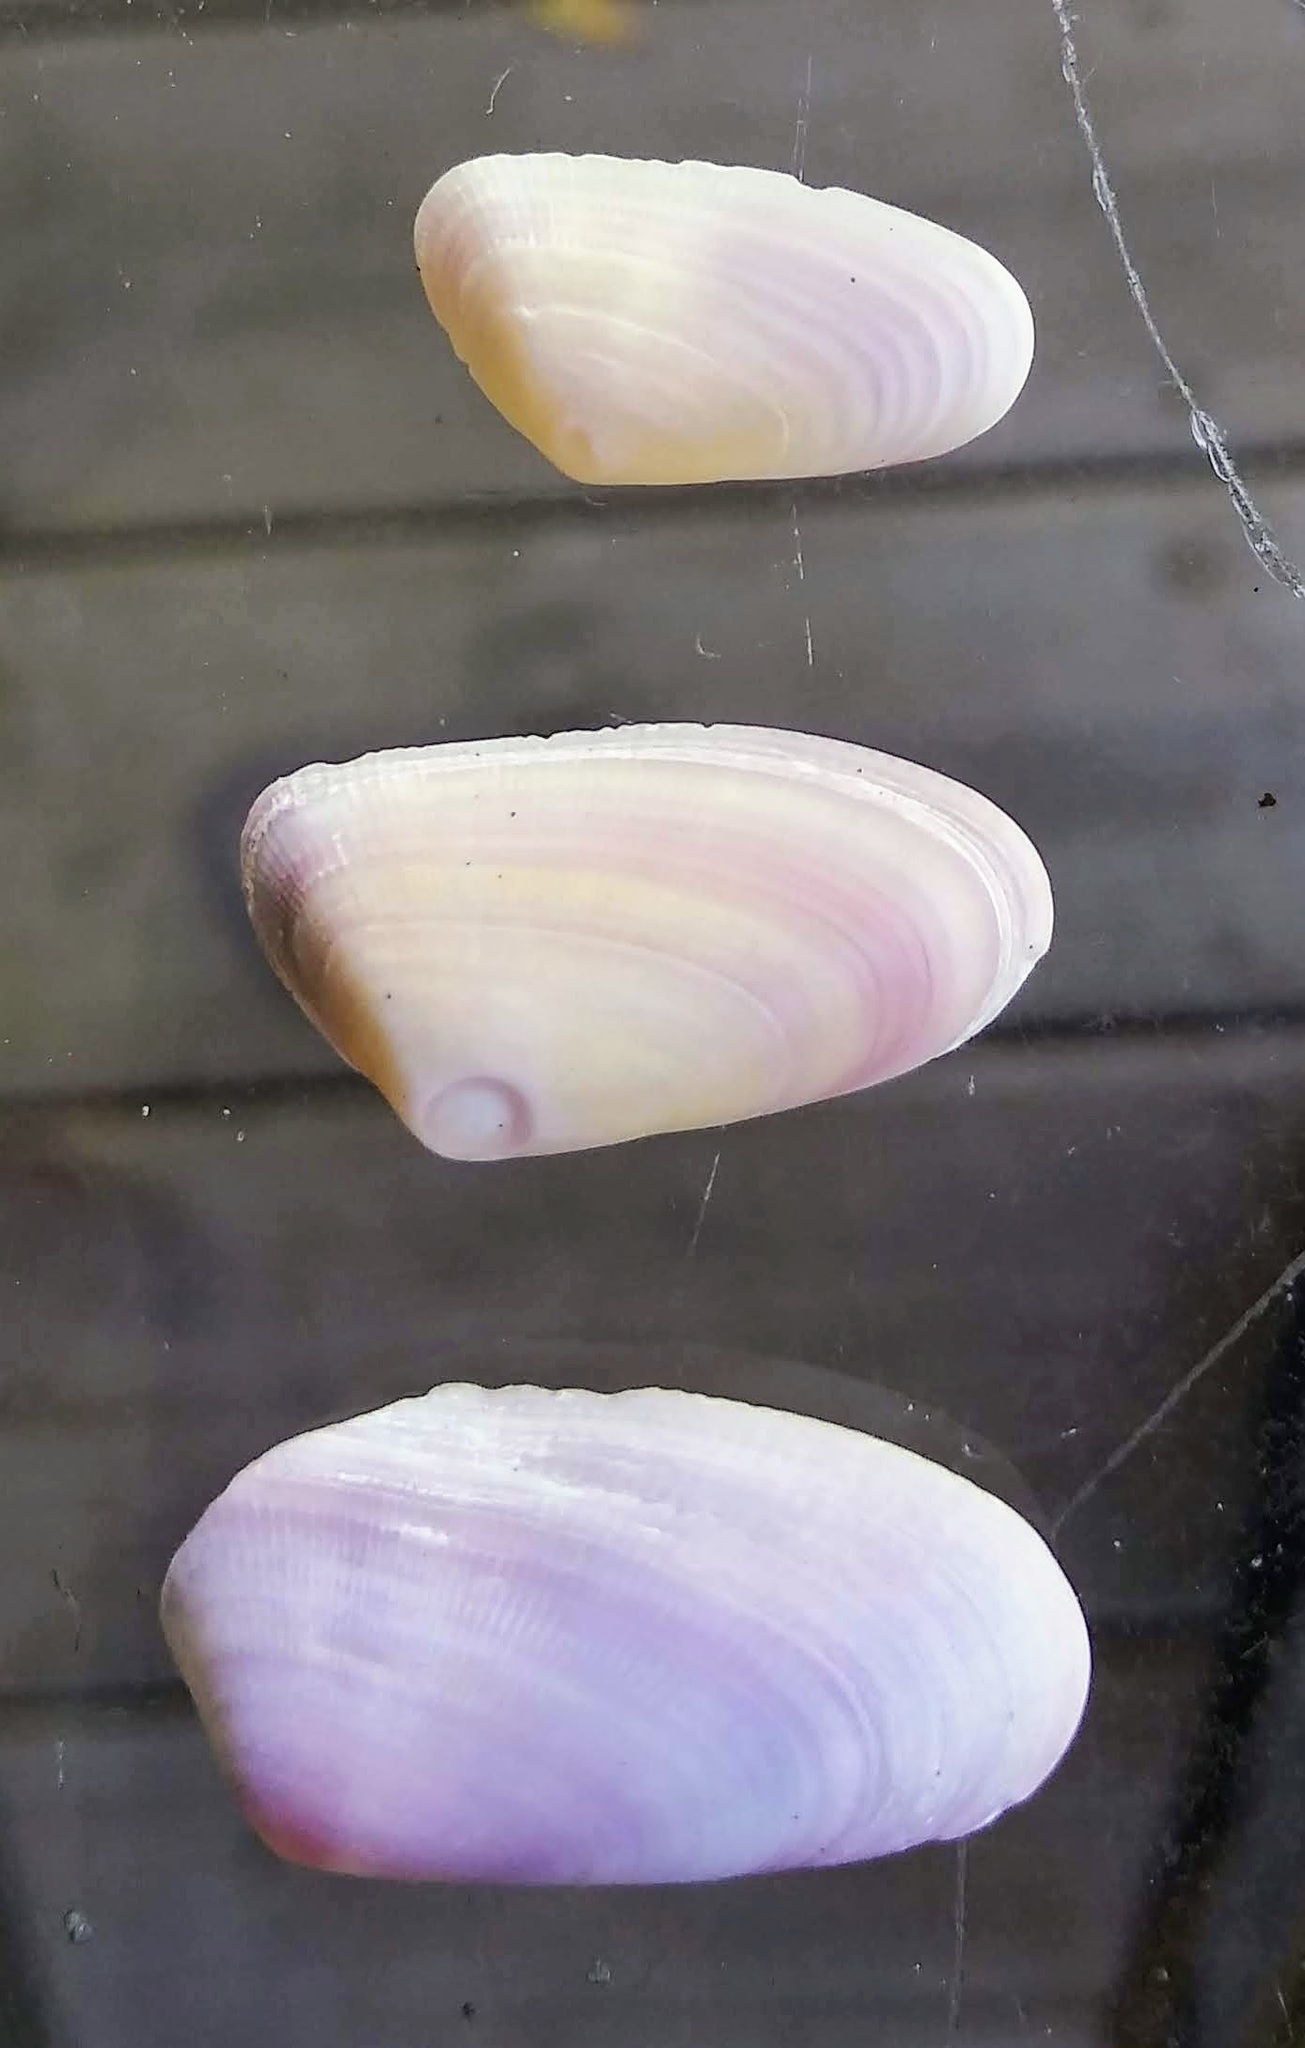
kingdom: Animalia
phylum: Mollusca
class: Bivalvia
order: Cardiida
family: Donacidae
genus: Donax
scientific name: Donax variabilis
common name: Butterfly shell
